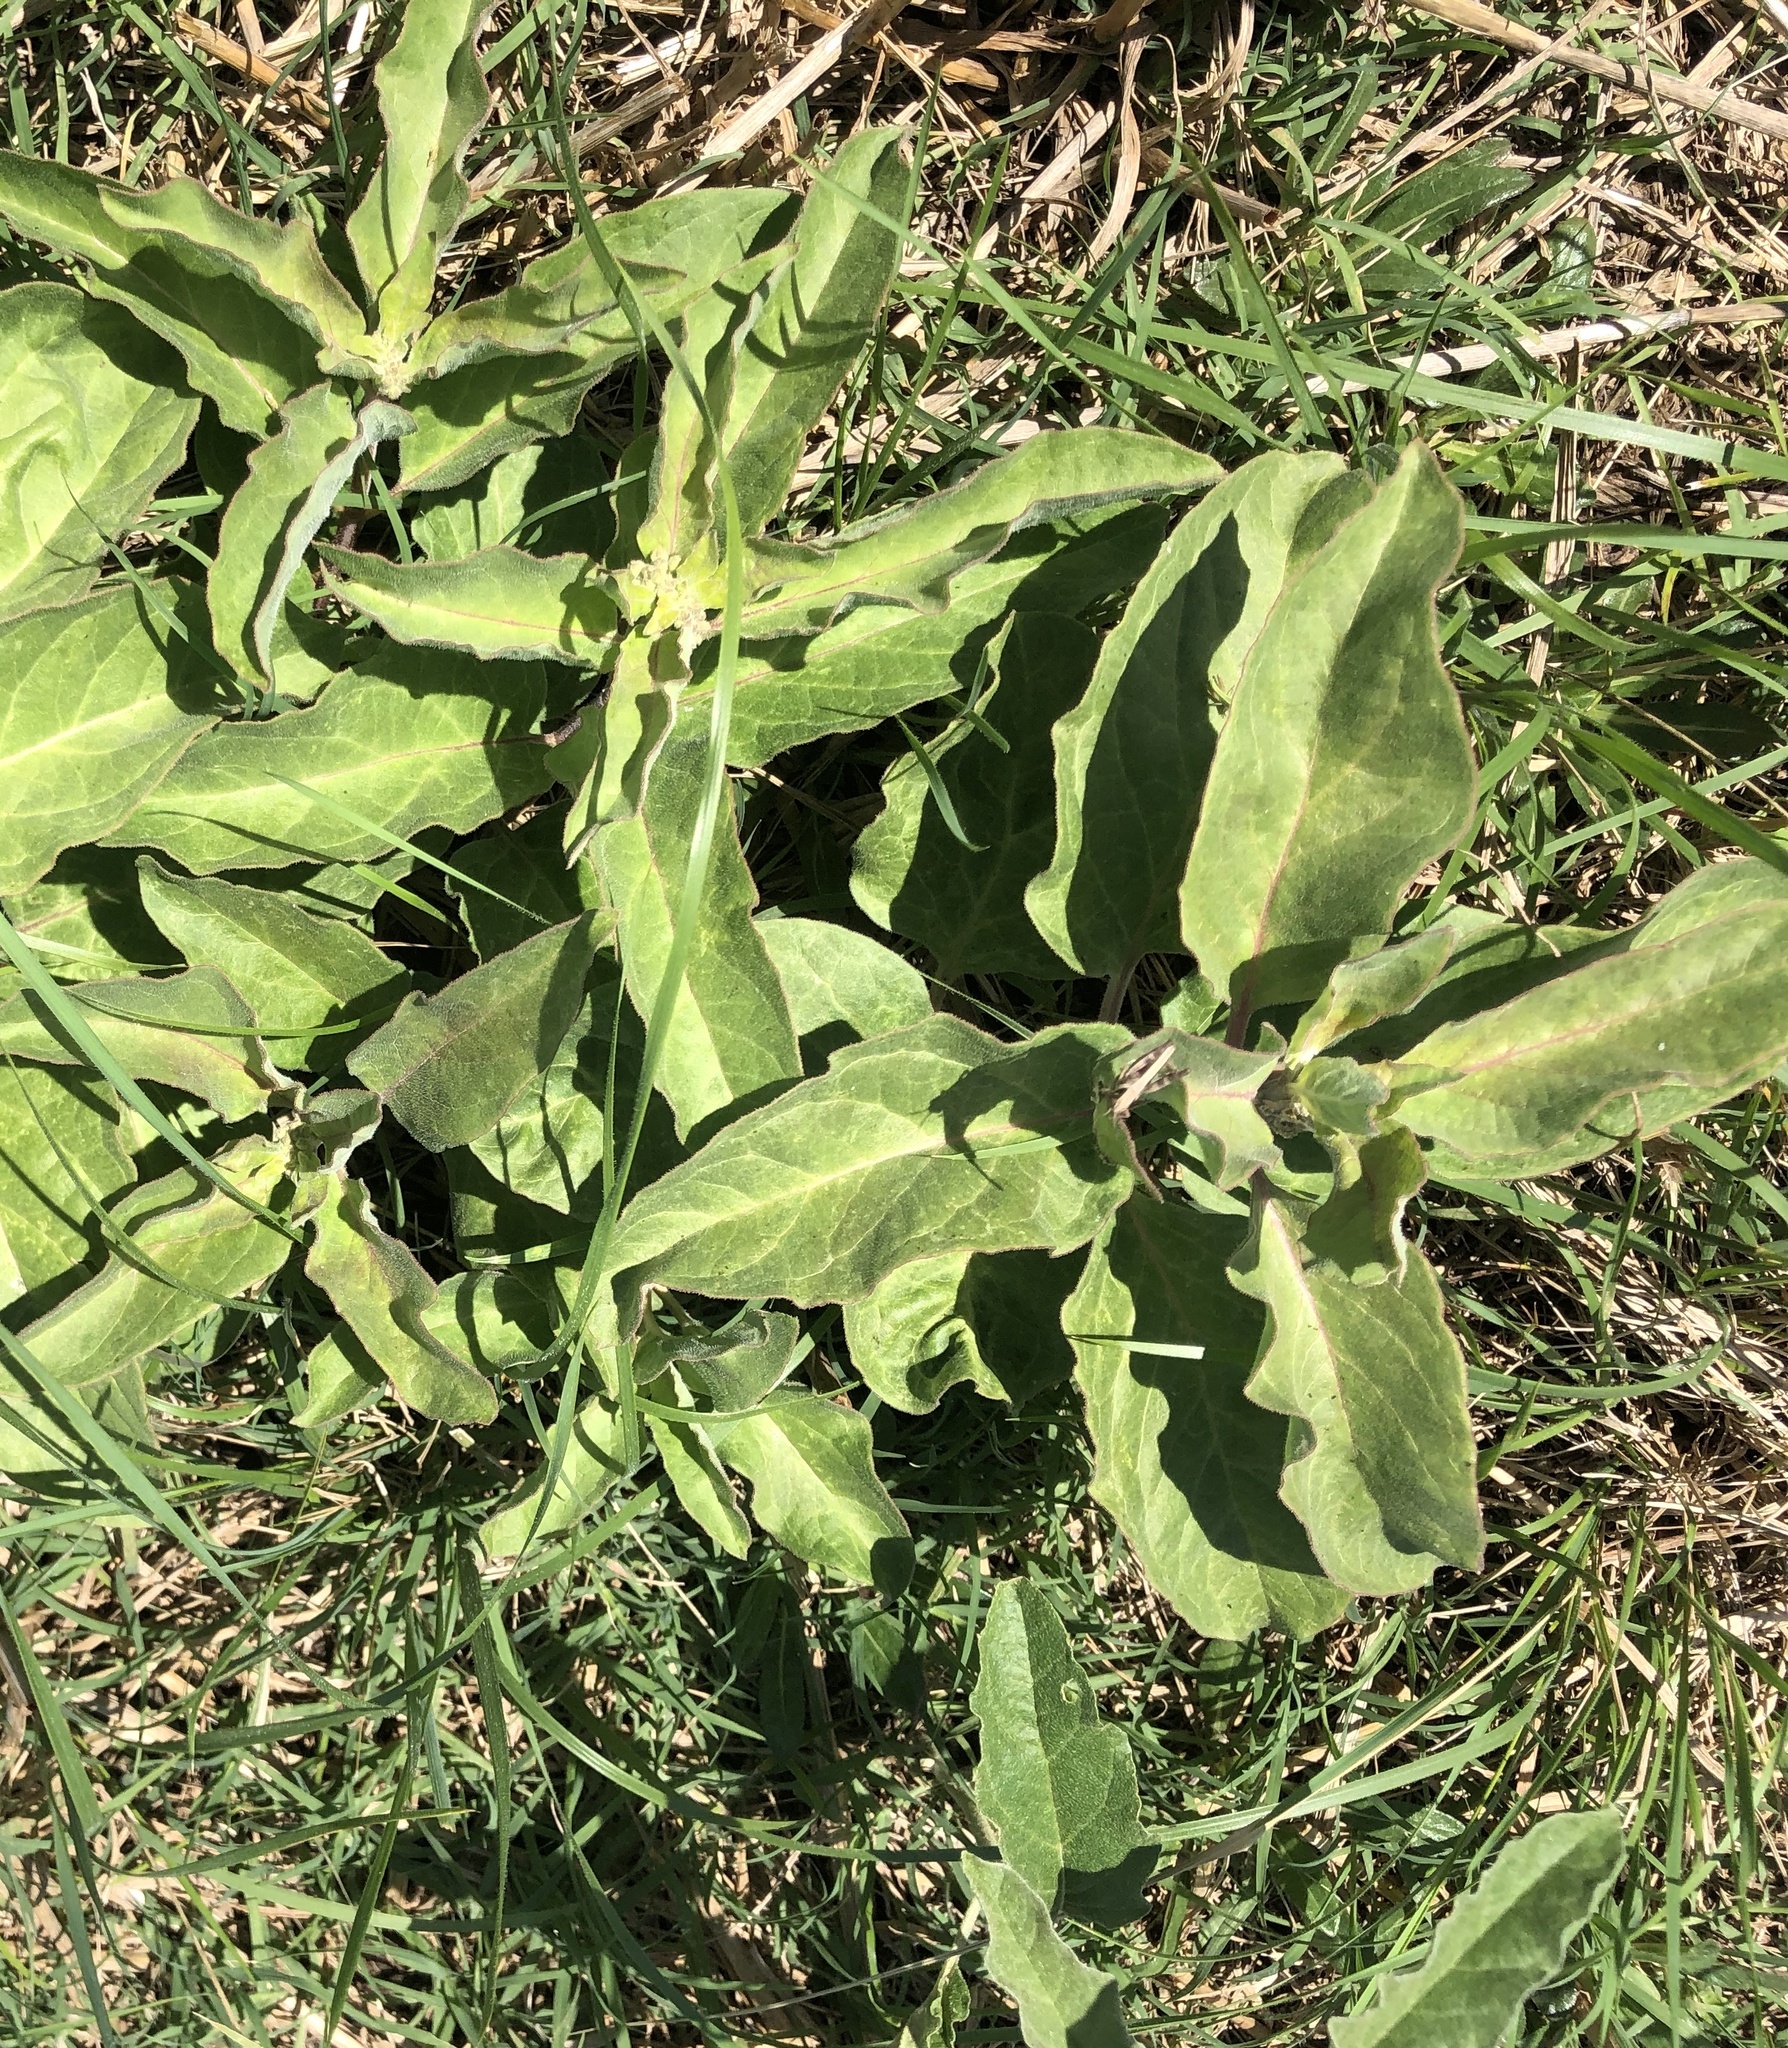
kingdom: Plantae
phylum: Tracheophyta
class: Magnoliopsida
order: Gentianales
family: Apocynaceae
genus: Asclepias
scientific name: Asclepias oenotheroides
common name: Zizotes milkweed
